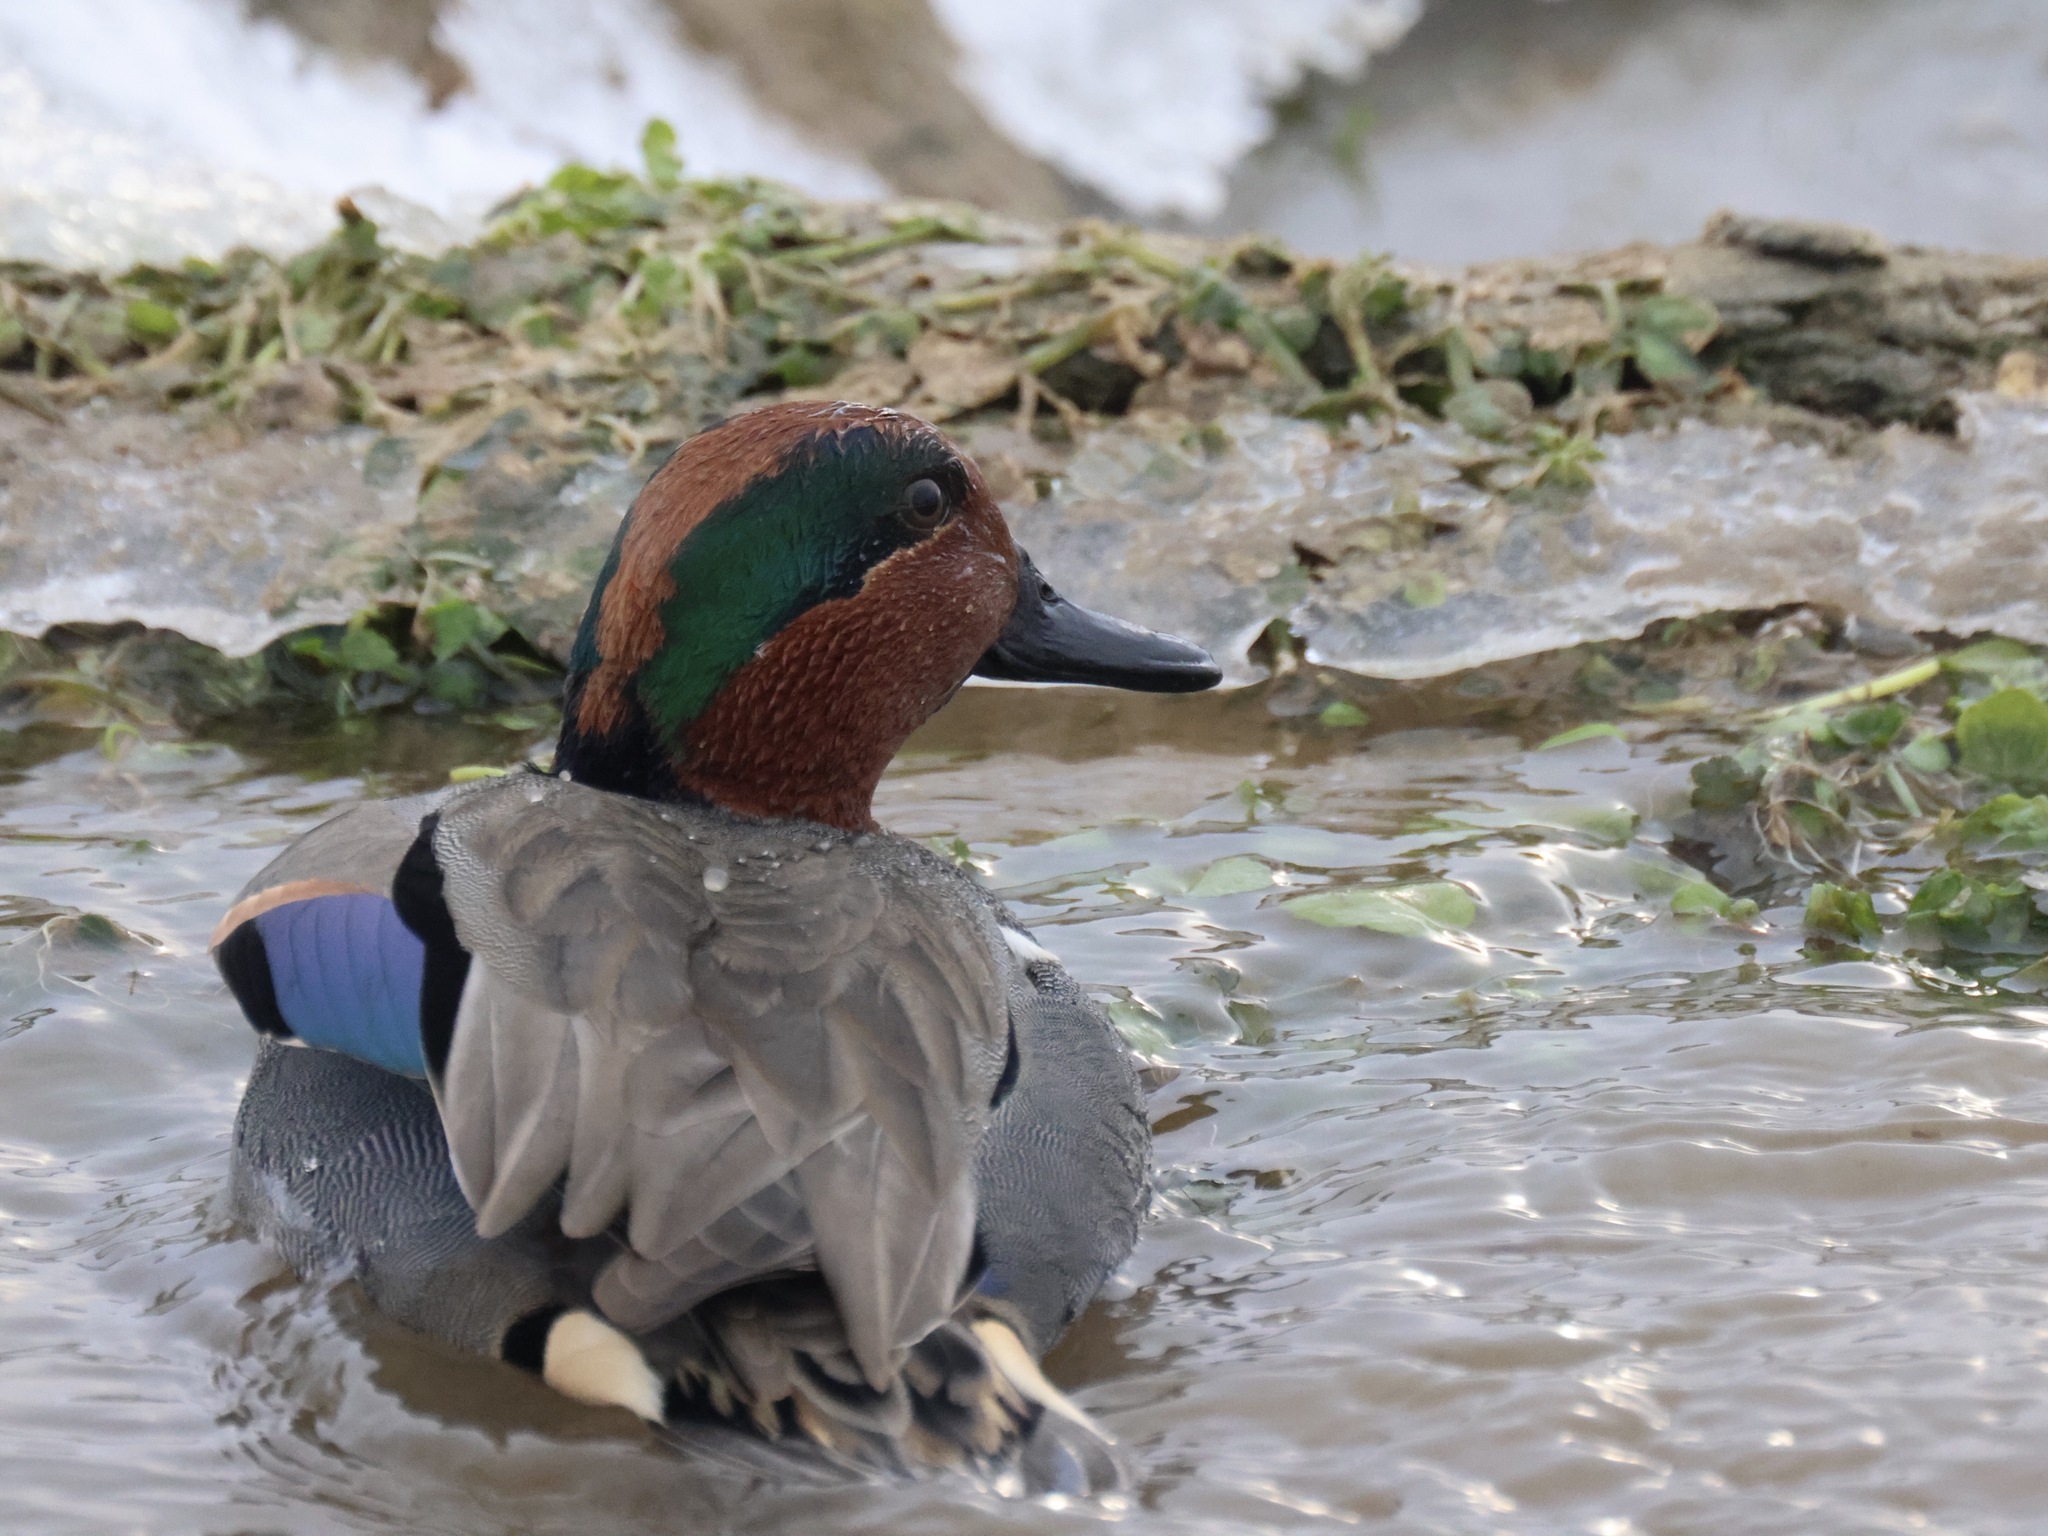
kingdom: Animalia
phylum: Chordata
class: Aves
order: Anseriformes
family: Anatidae
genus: Anas
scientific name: Anas crecca
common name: Eurasian teal
